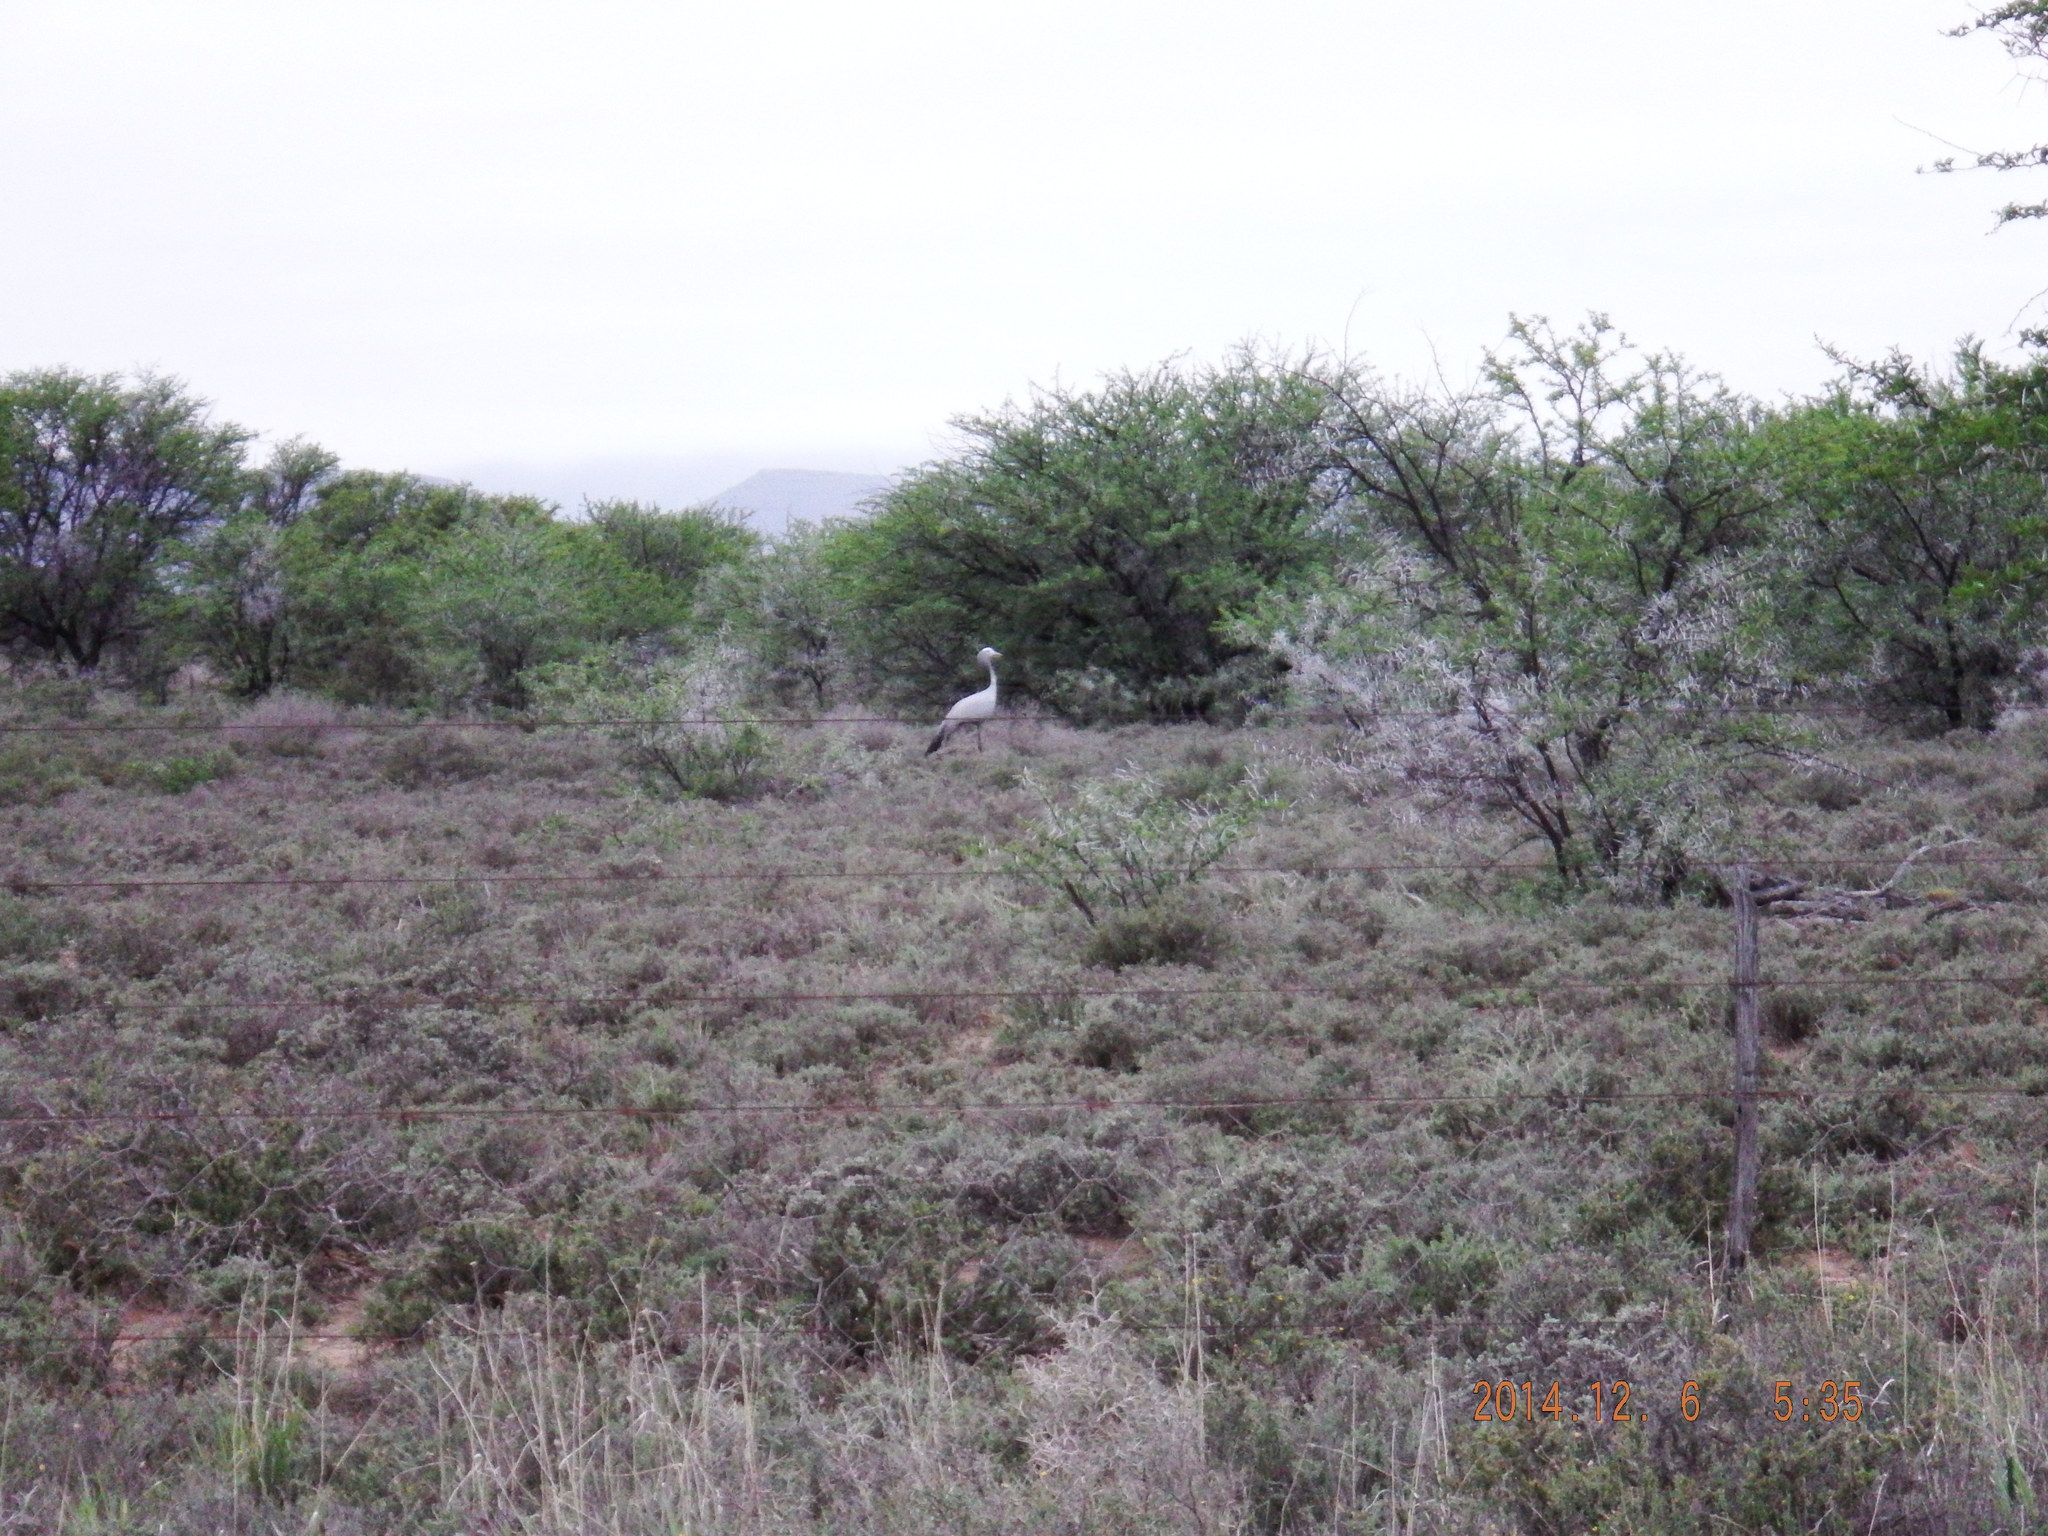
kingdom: Animalia
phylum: Chordata
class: Aves
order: Gruiformes
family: Gruidae
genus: Anthropoides
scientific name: Anthropoides paradiseus
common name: Blue crane
